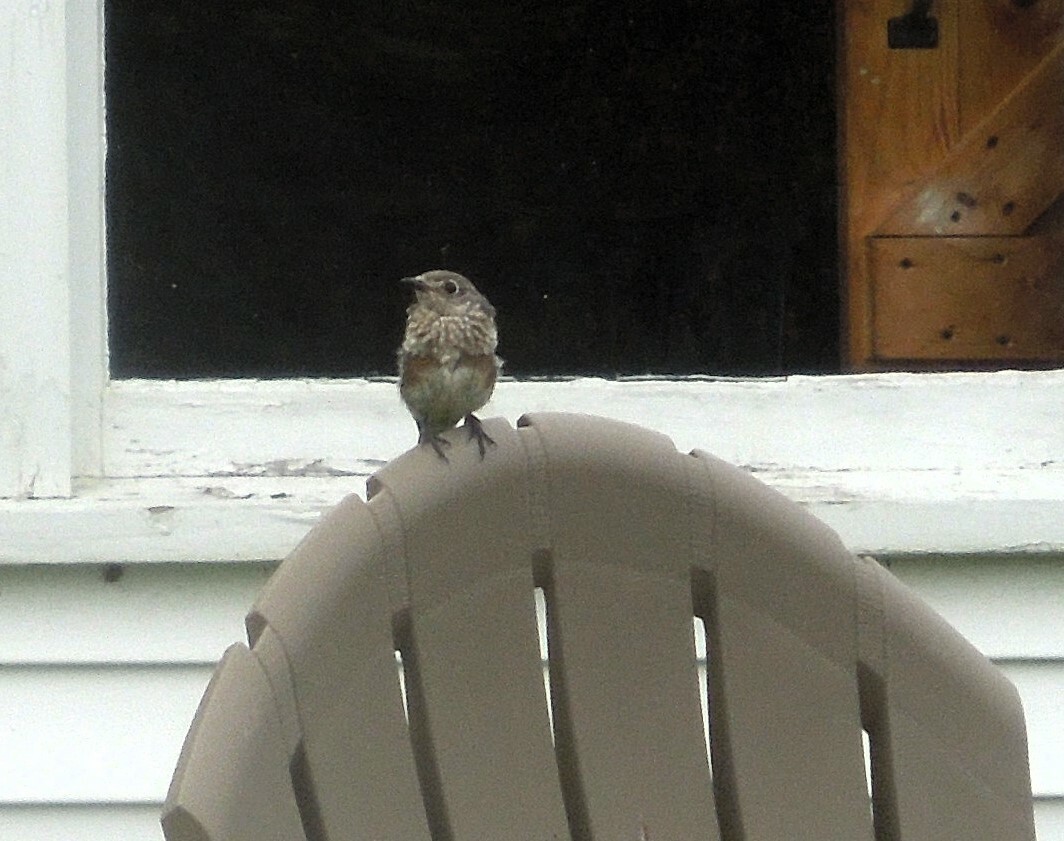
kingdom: Animalia
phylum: Chordata
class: Aves
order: Passeriformes
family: Turdidae
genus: Sialia
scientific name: Sialia sialis
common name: Eastern bluebird
